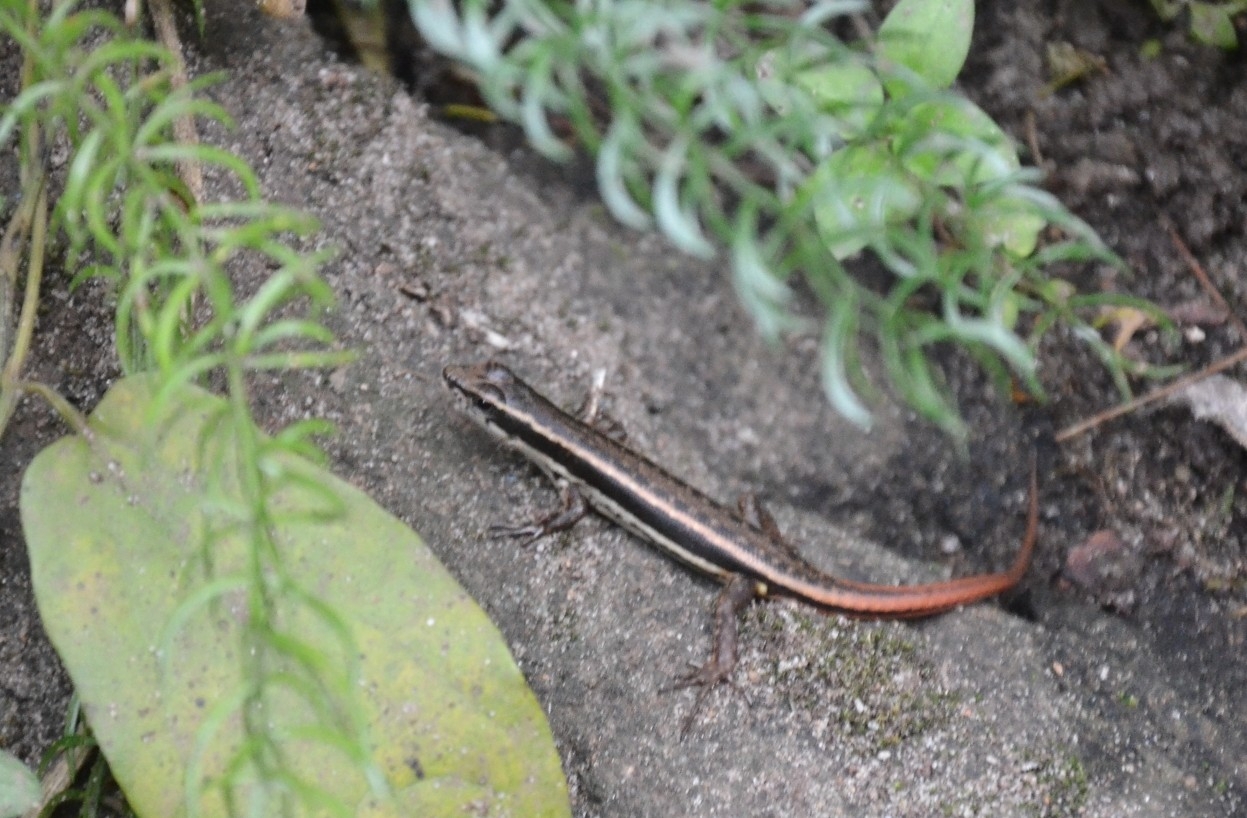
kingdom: Animalia
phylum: Chordata
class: Squamata
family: Scincidae
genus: Sphenomorphus
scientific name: Sphenomorphus dussumieri
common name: Dussumier's forest skink
